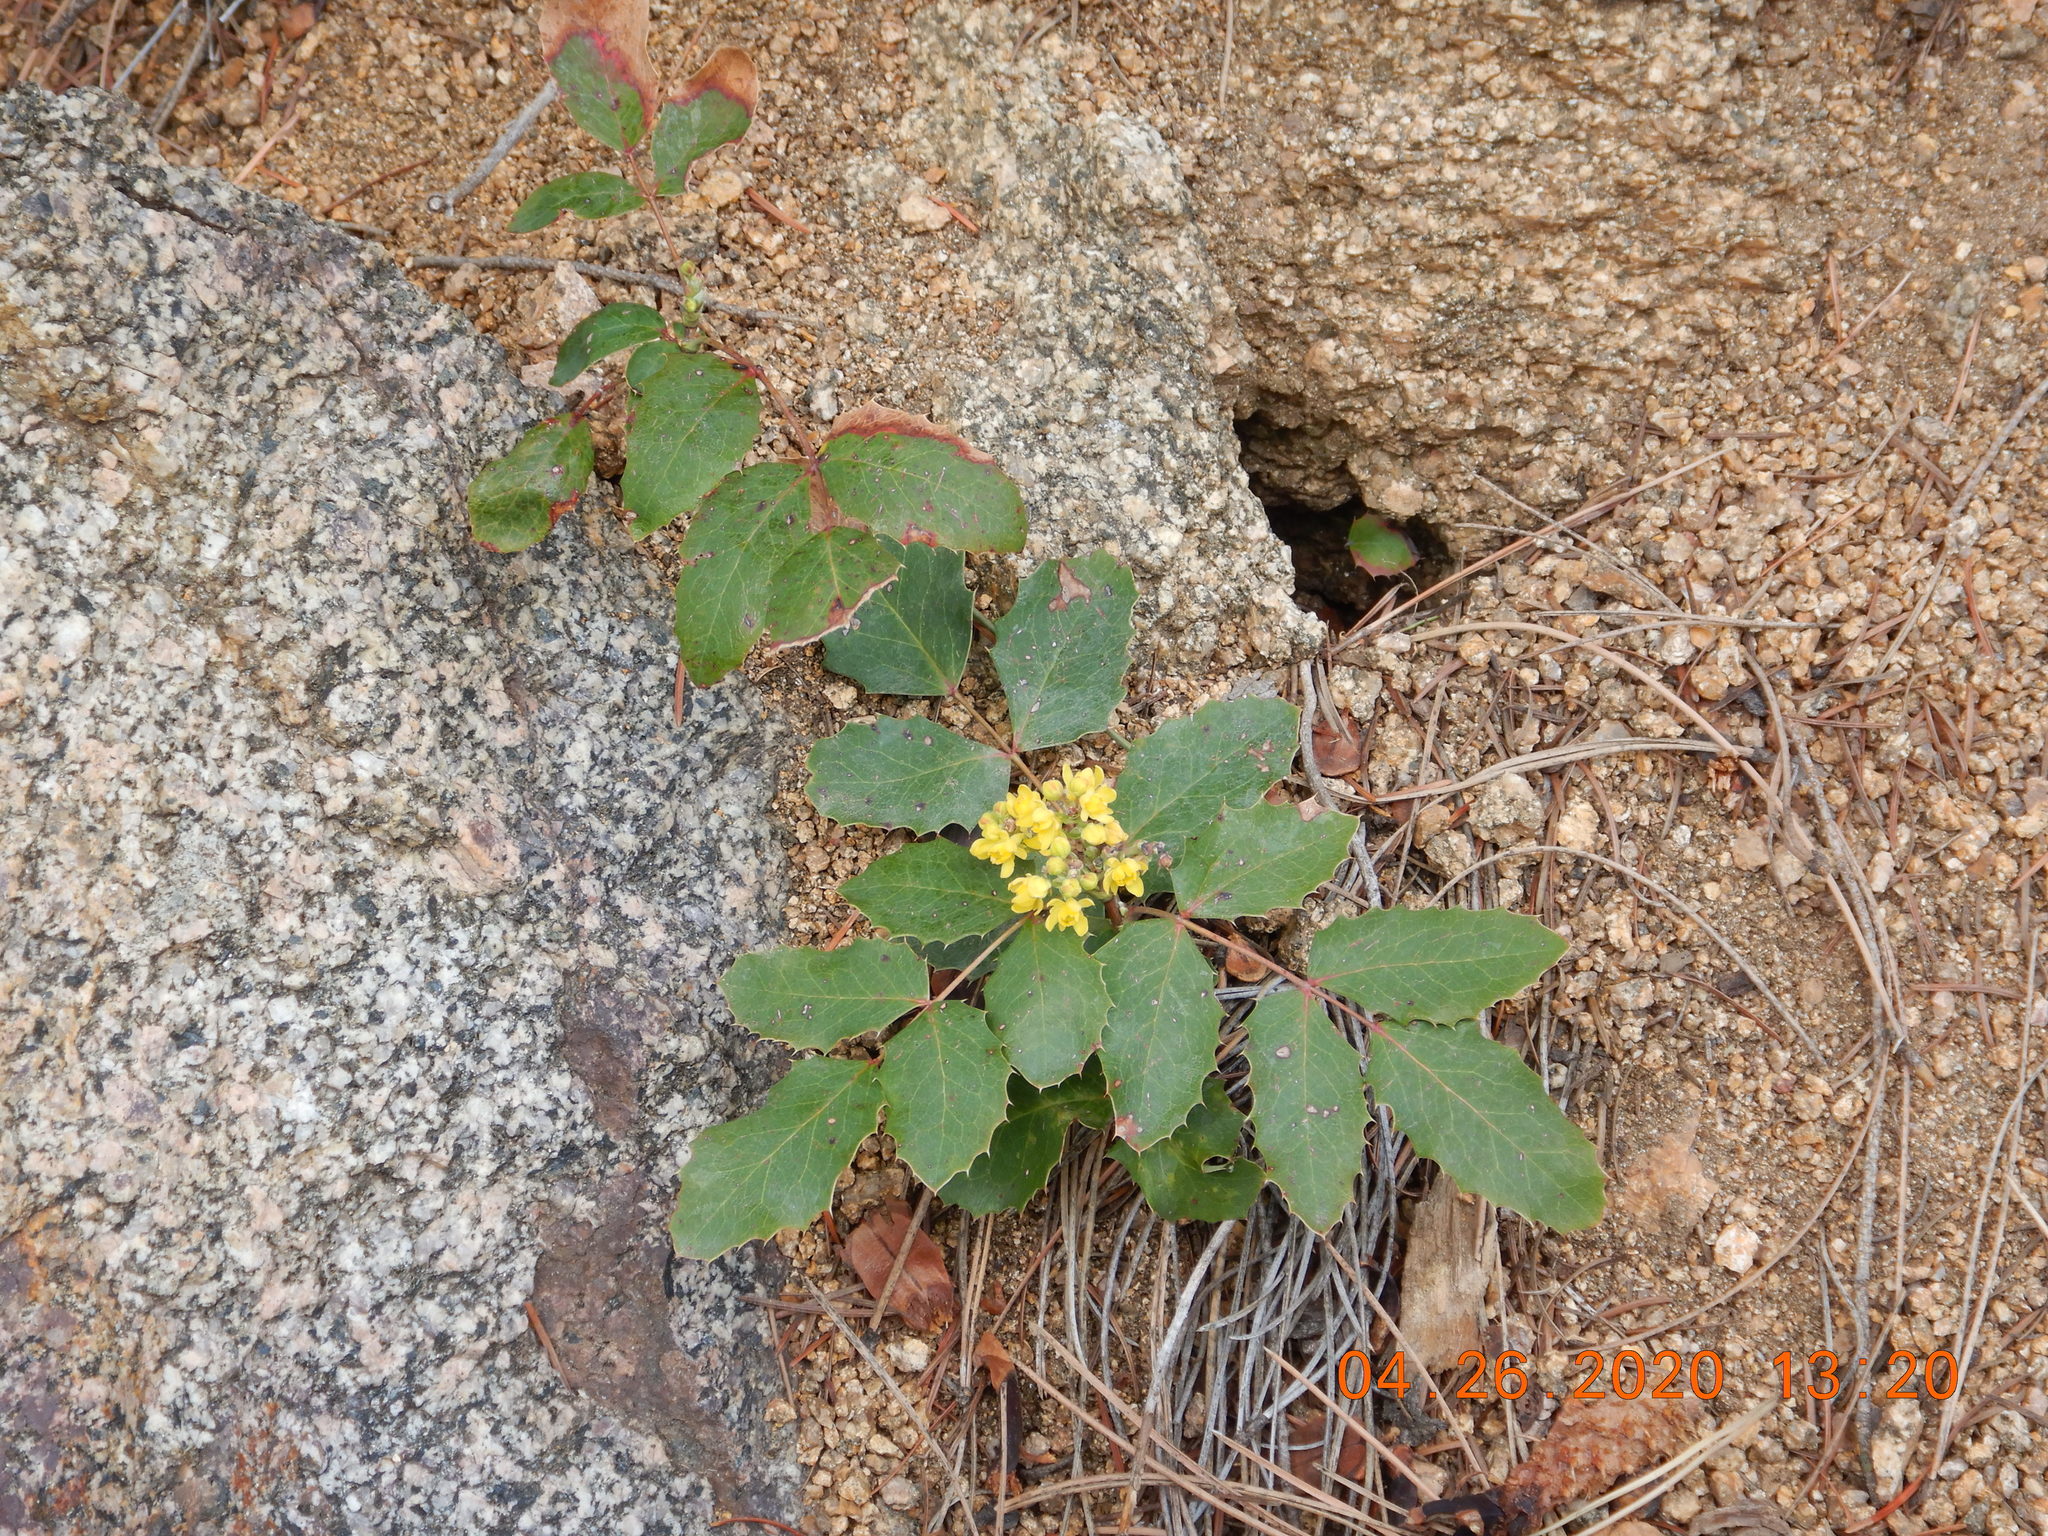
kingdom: Plantae
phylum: Tracheophyta
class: Magnoliopsida
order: Ranunculales
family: Berberidaceae
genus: Mahonia
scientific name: Mahonia repens
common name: Creeping oregon-grape
